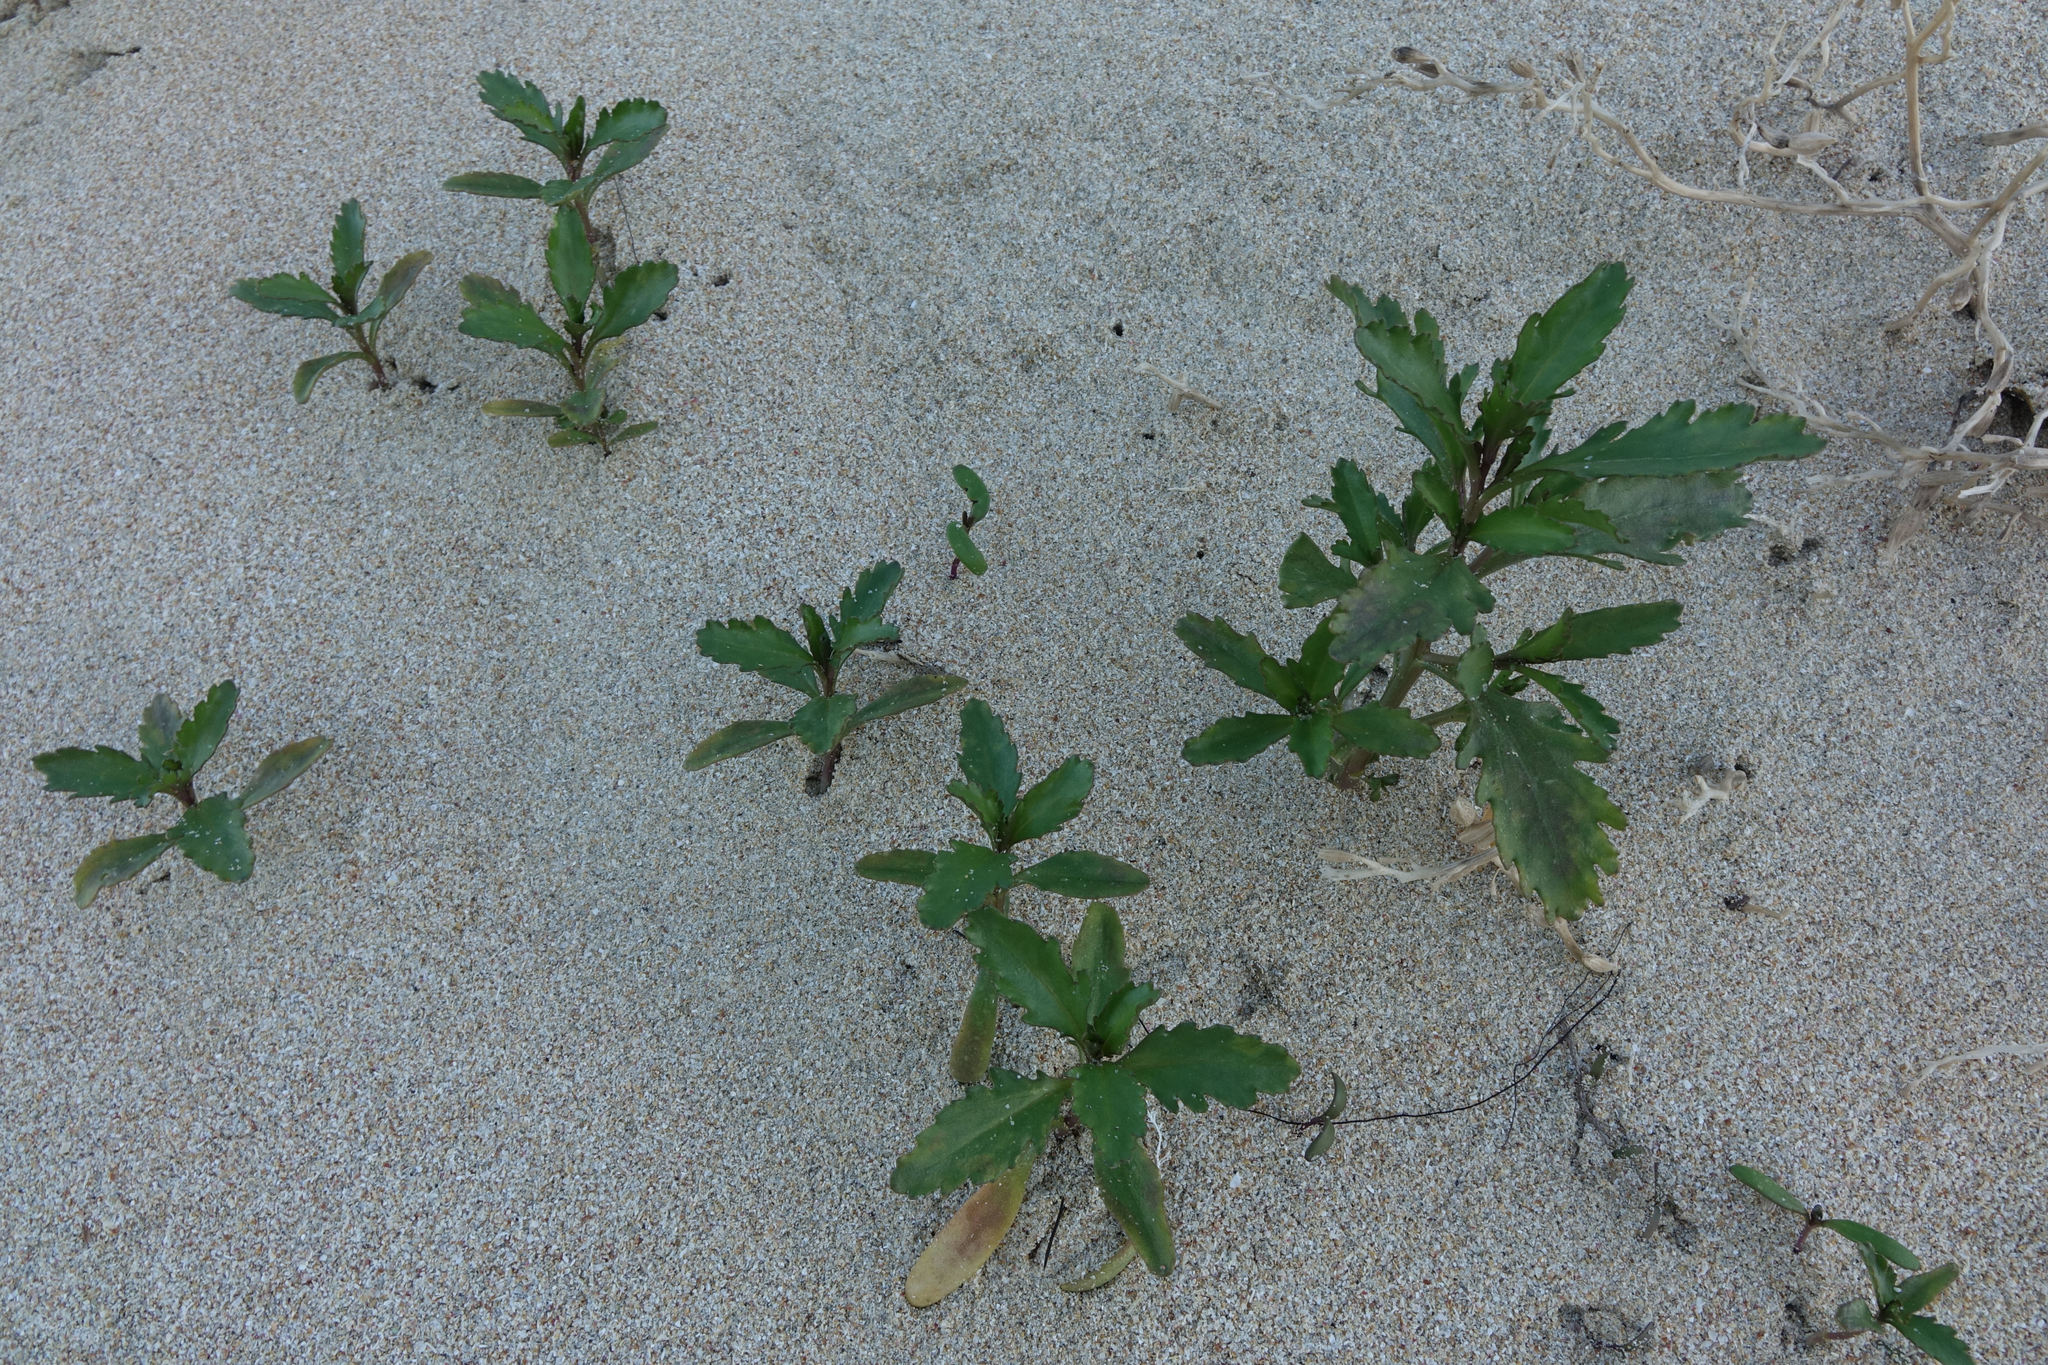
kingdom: Plantae
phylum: Tracheophyta
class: Magnoliopsida
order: Brassicales
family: Brassicaceae
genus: Cakile
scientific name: Cakile edentula
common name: American sea rocket
